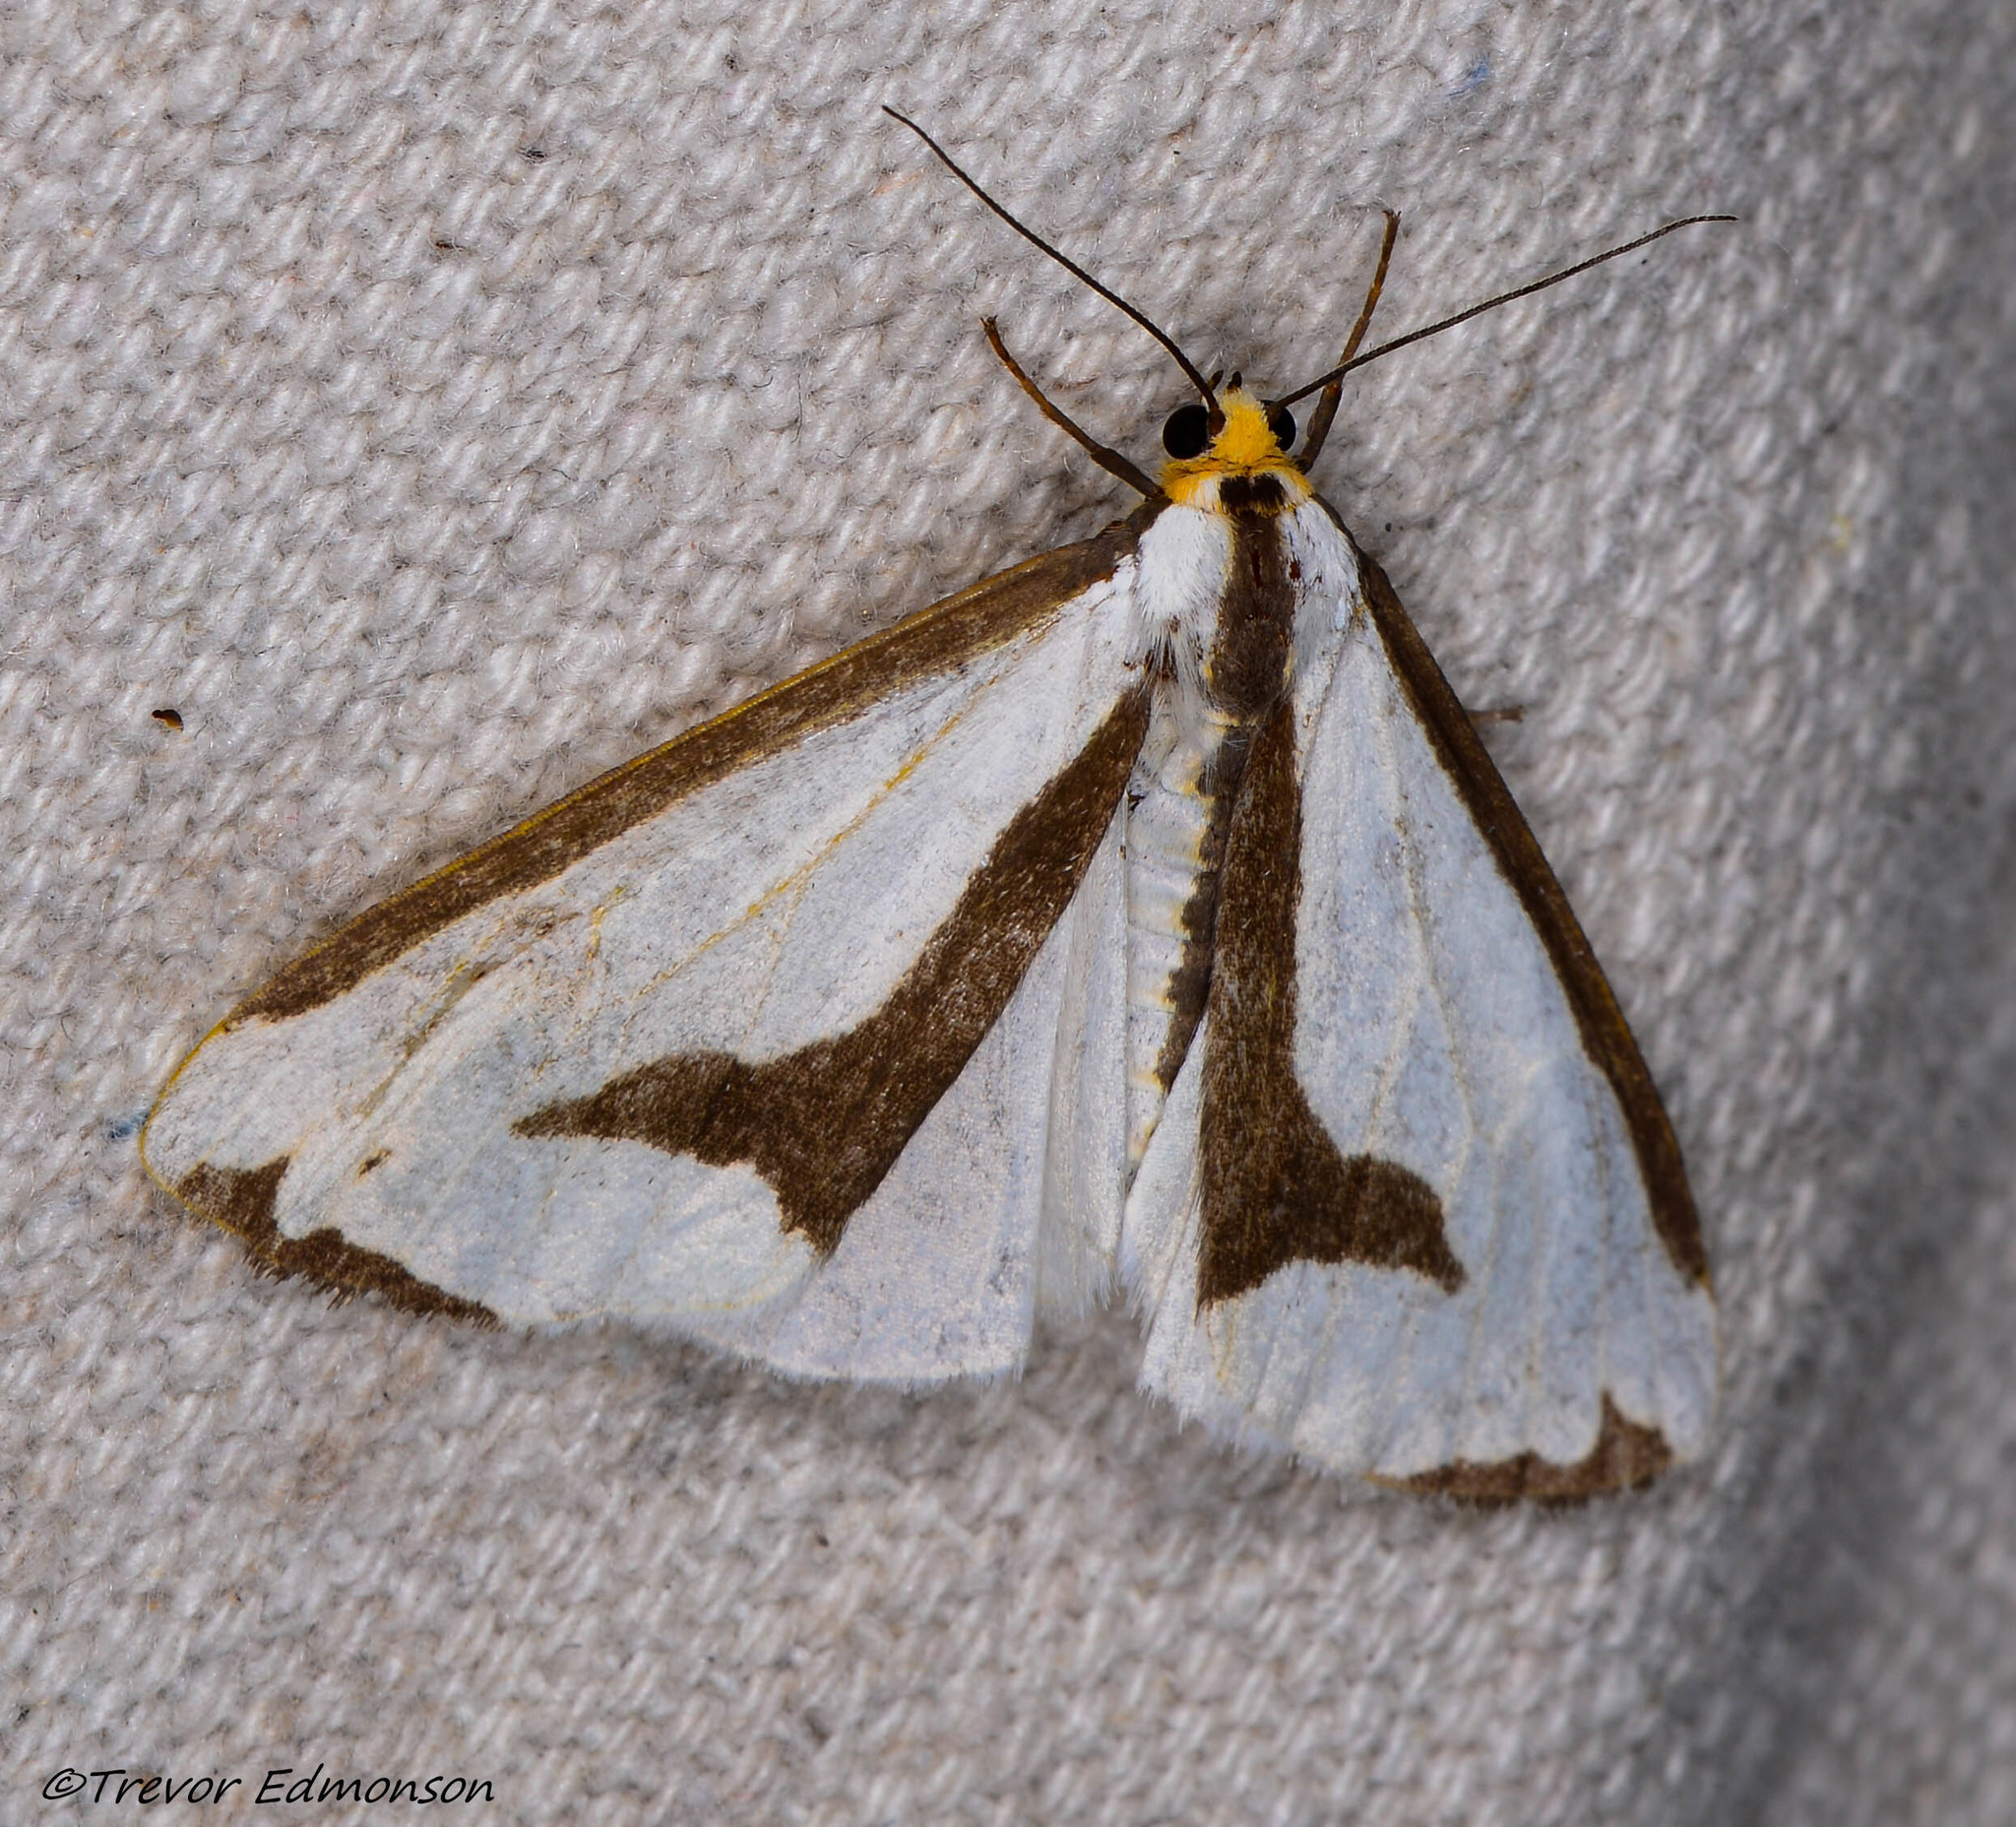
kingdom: Animalia
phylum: Arthropoda
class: Insecta
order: Lepidoptera
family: Erebidae
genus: Haploa
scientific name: Haploa lecontei
